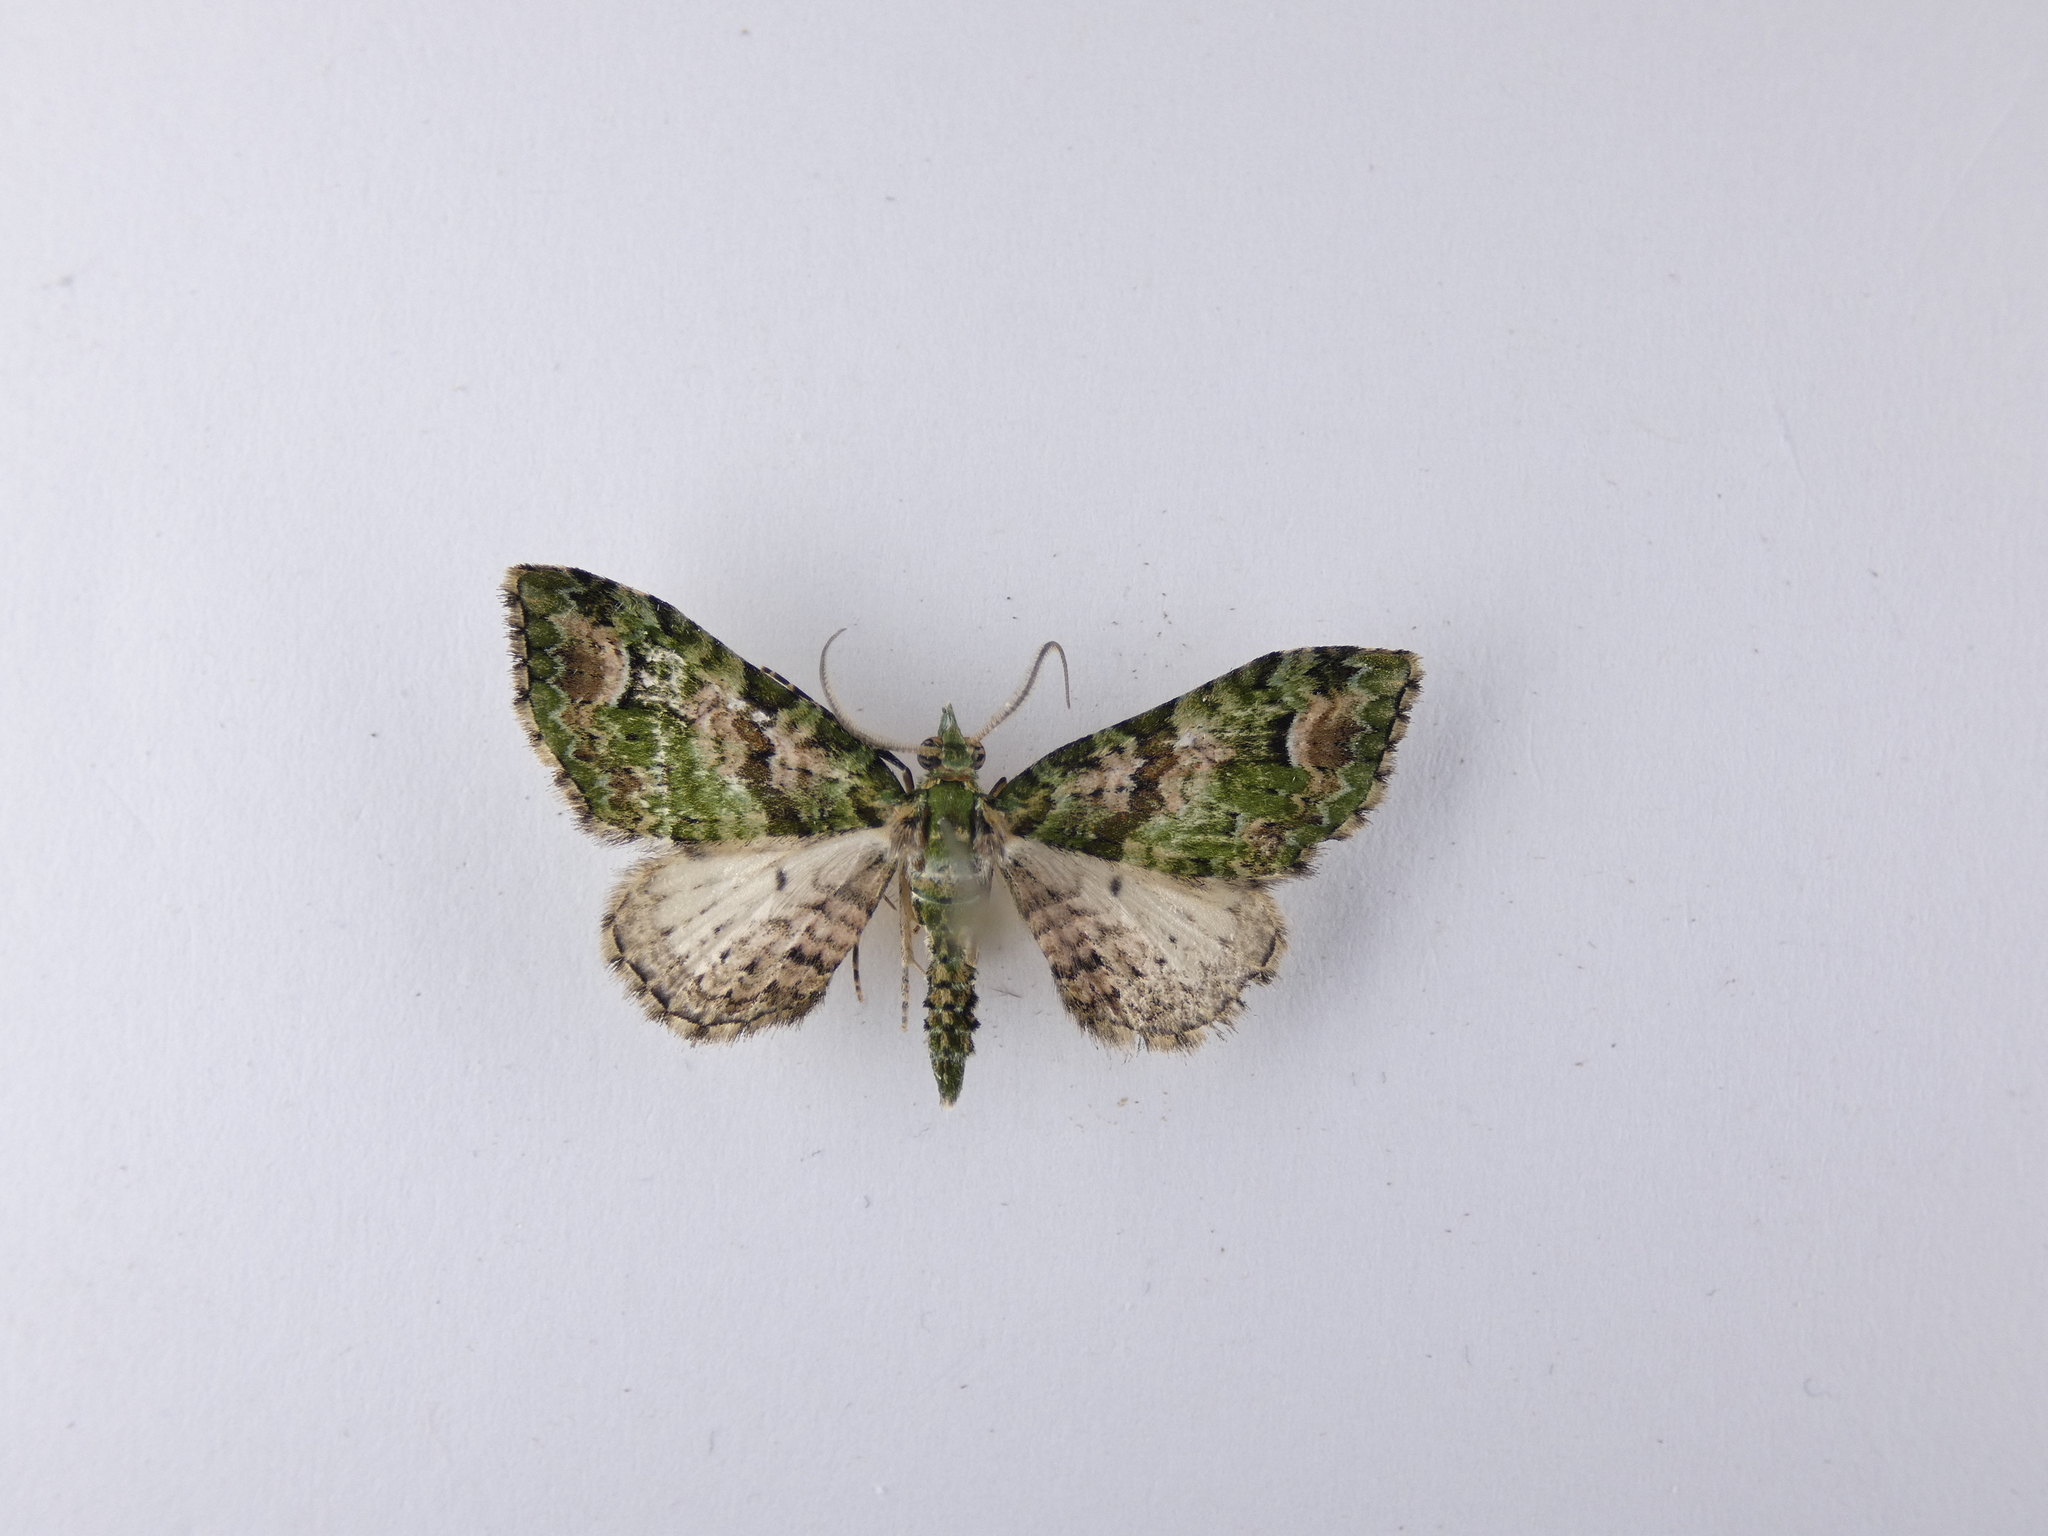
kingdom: Animalia
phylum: Arthropoda
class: Insecta
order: Lepidoptera
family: Geometridae
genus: Pasiphila
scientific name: Pasiphila semochlora
